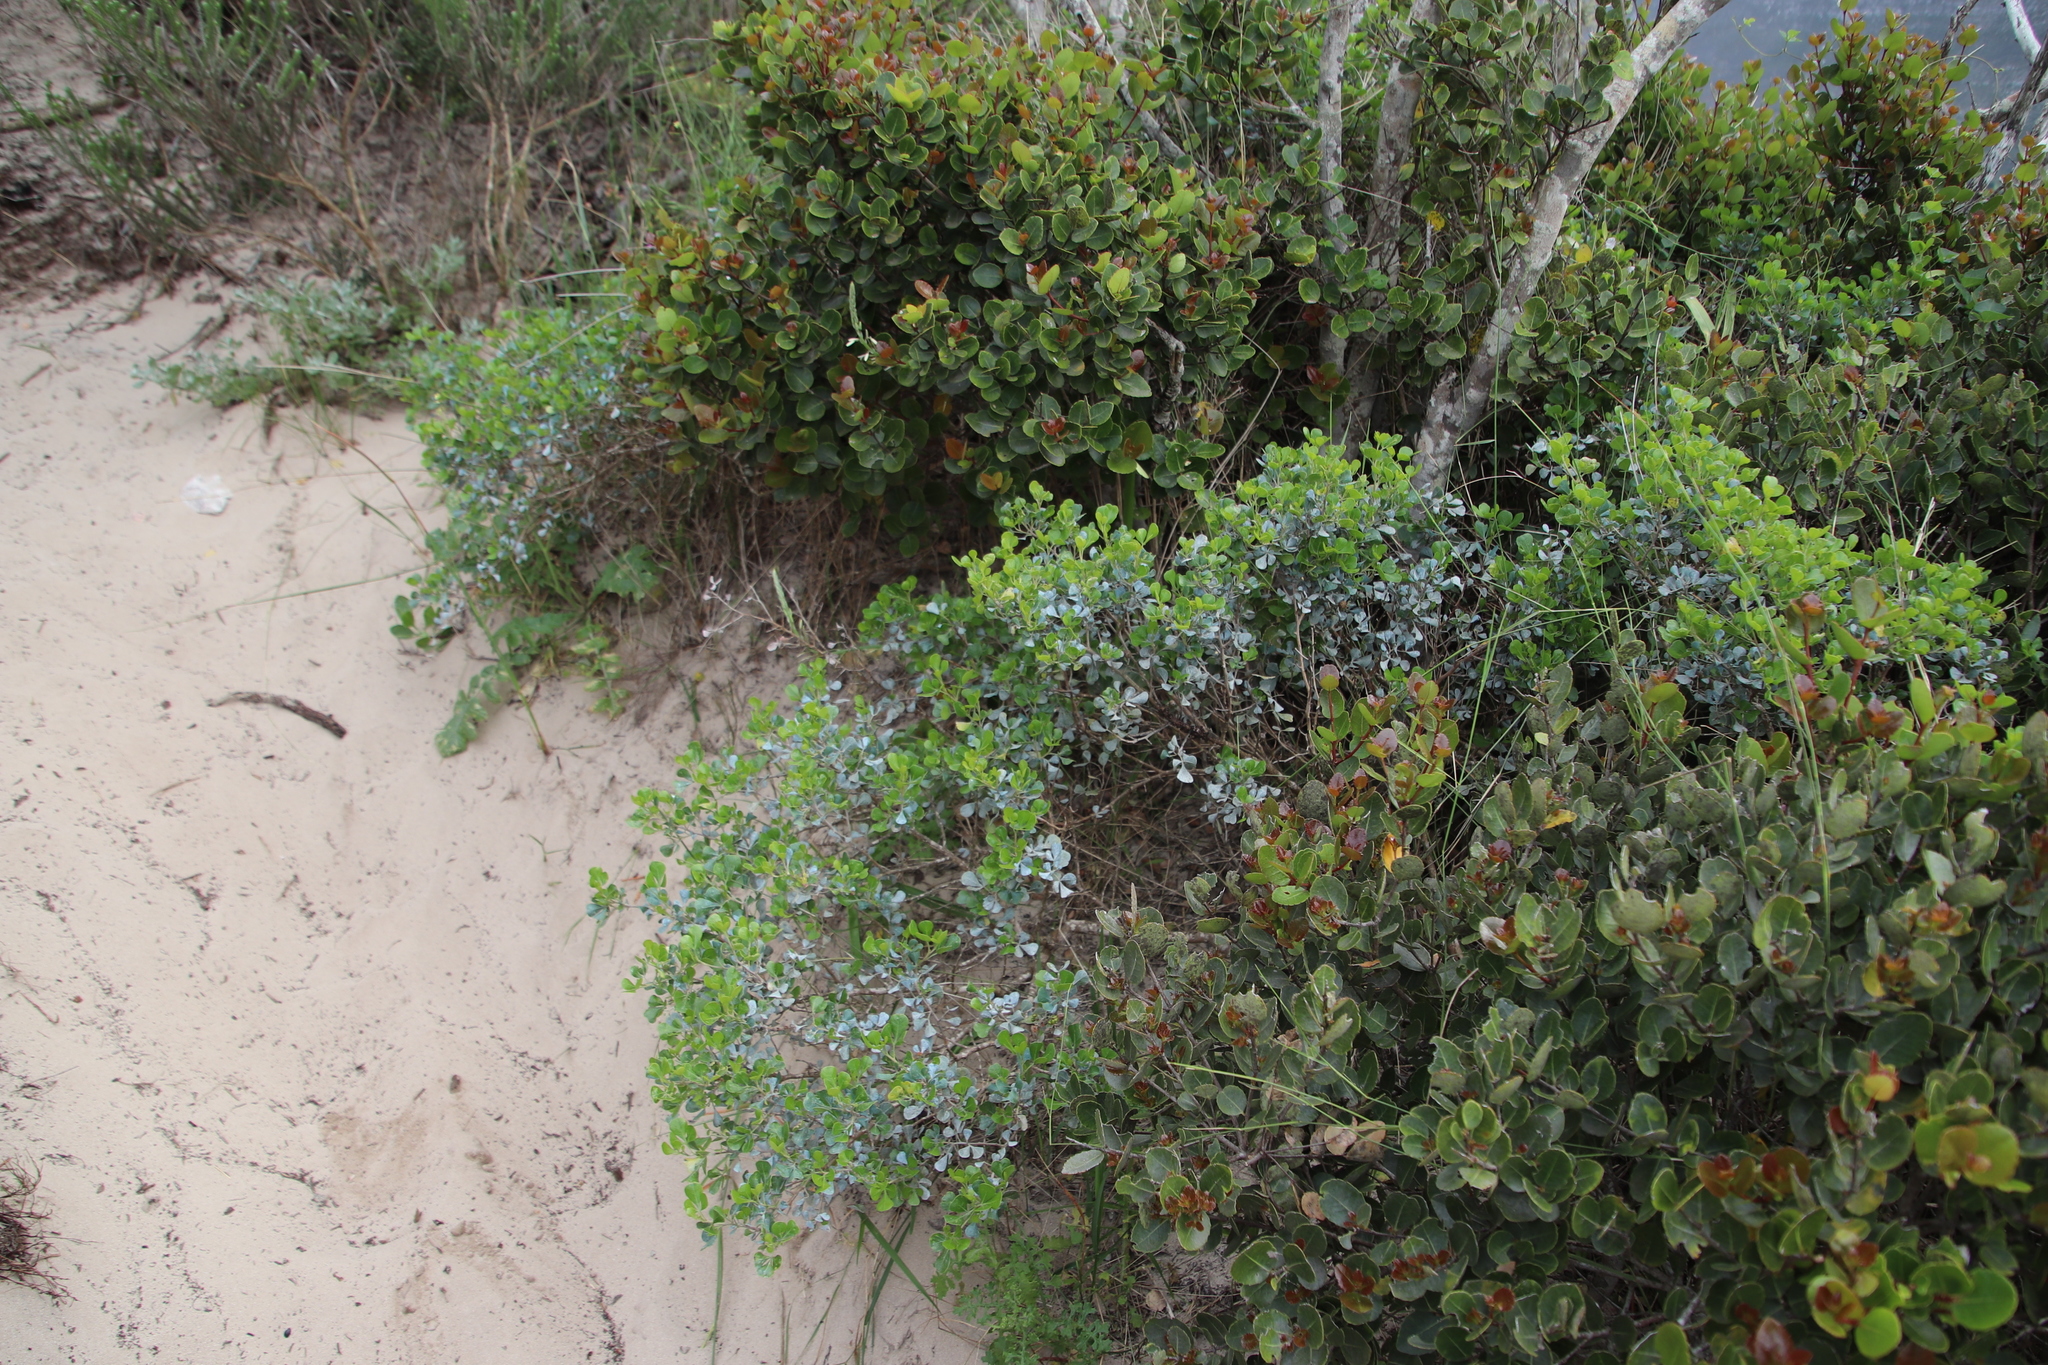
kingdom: Plantae
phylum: Tracheophyta
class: Magnoliopsida
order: Sapindales
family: Anacardiaceae
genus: Searsia
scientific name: Searsia glauca
